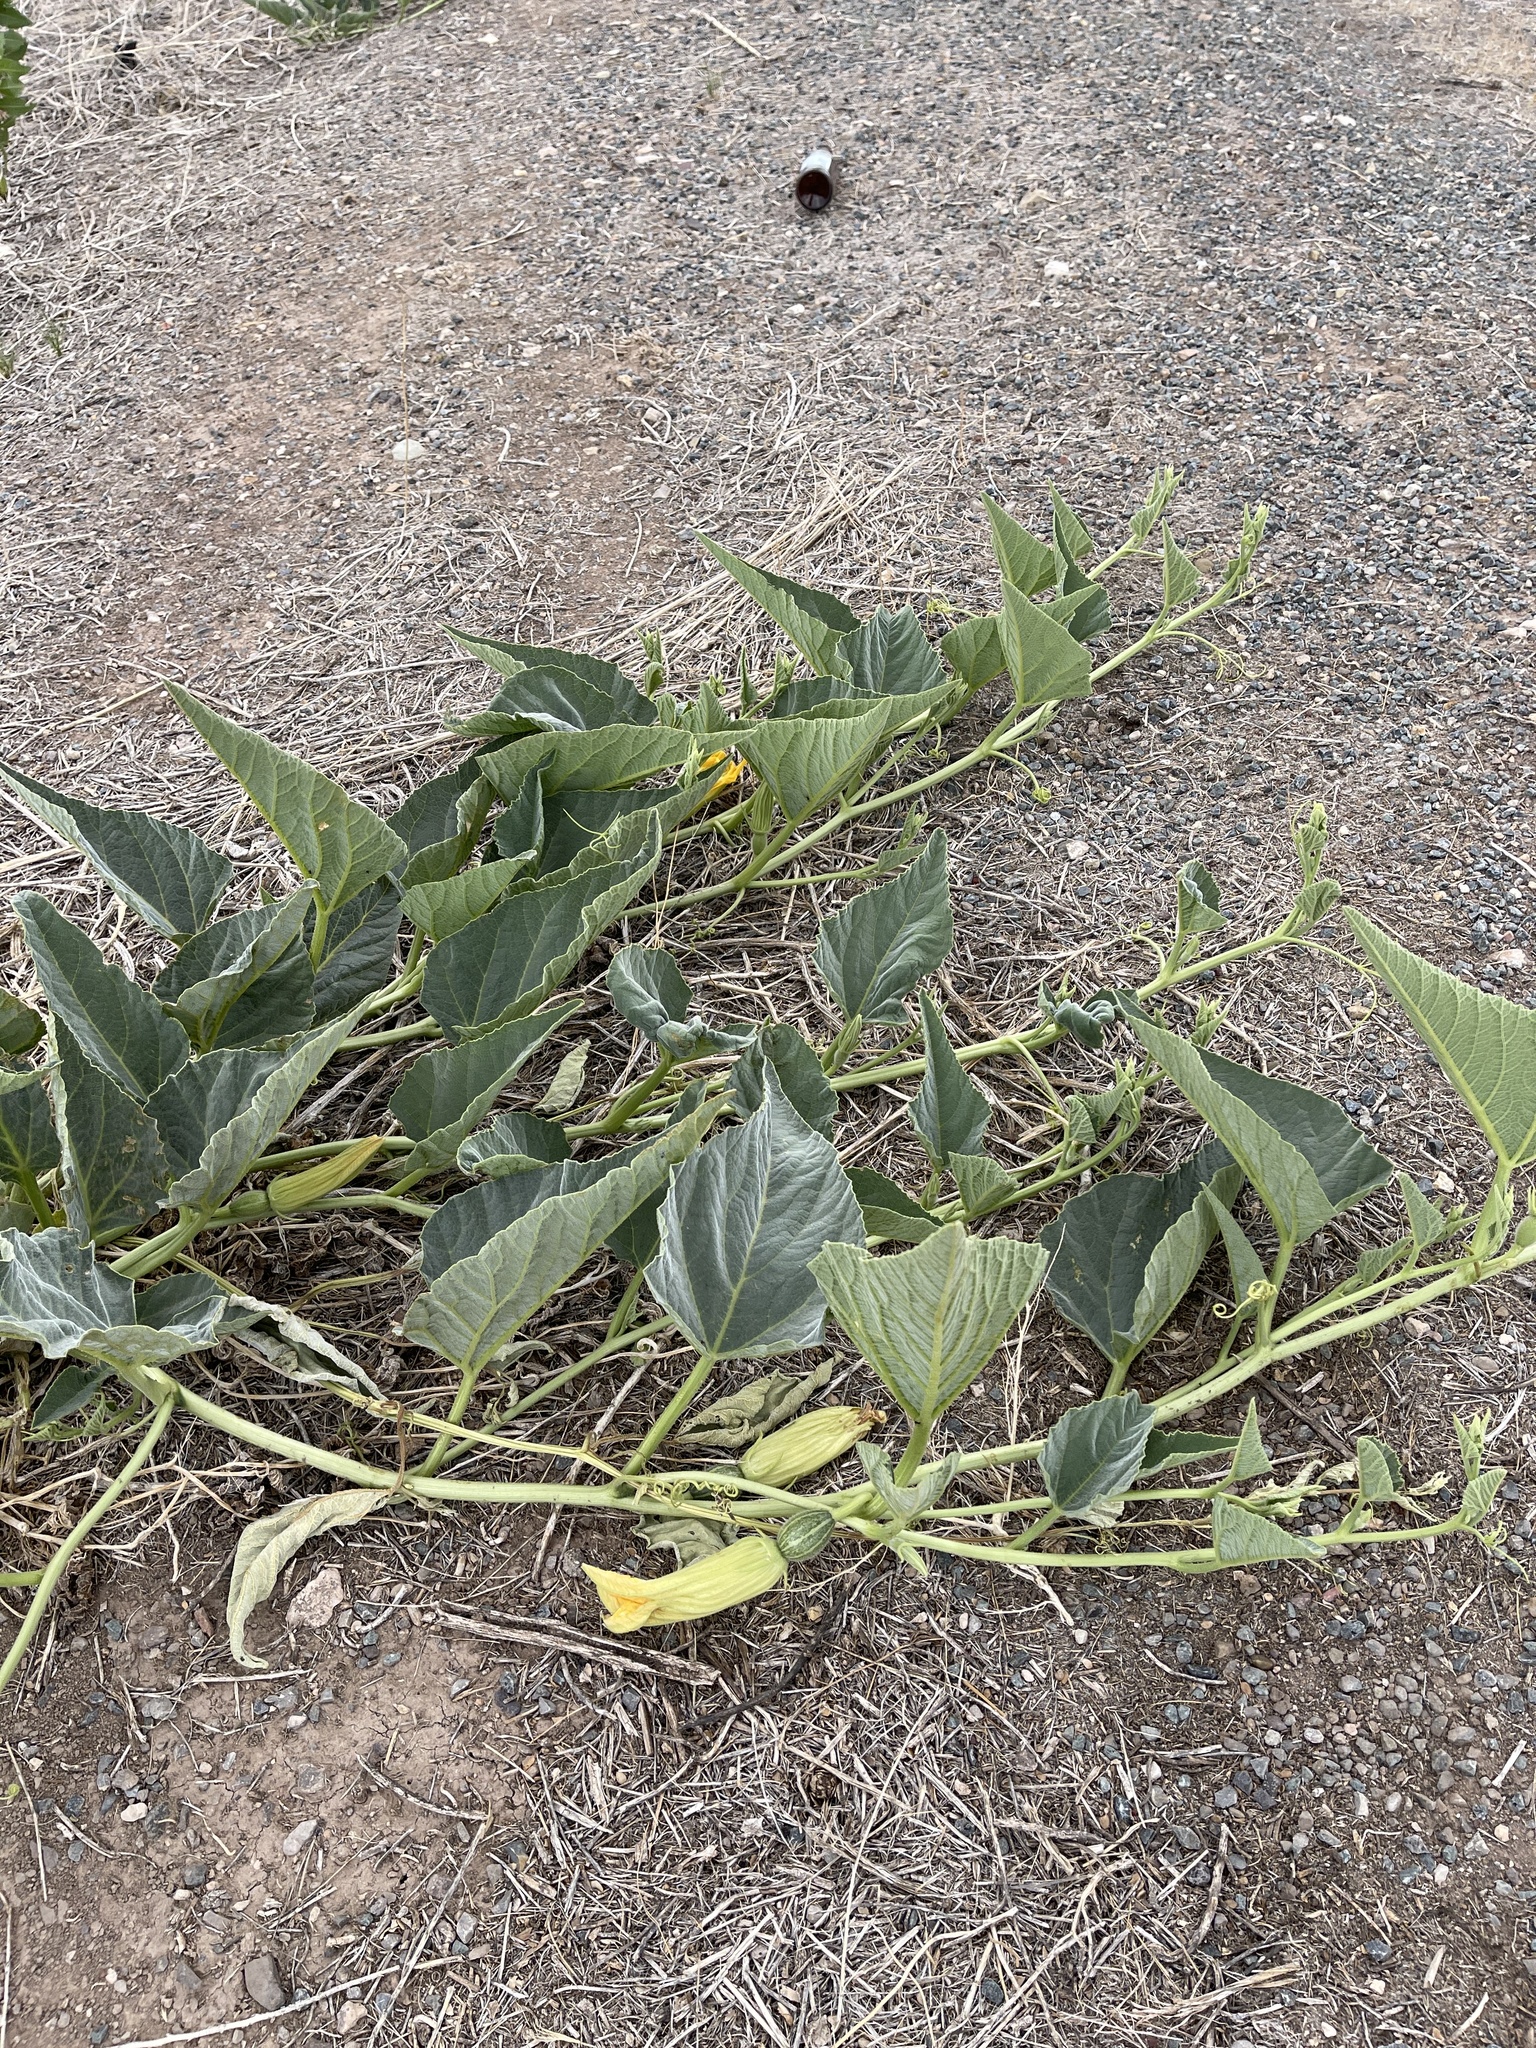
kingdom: Plantae
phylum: Tracheophyta
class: Magnoliopsida
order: Cucurbitales
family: Cucurbitaceae
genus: Cucurbita
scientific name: Cucurbita foetidissima
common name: Buffalo gourd
